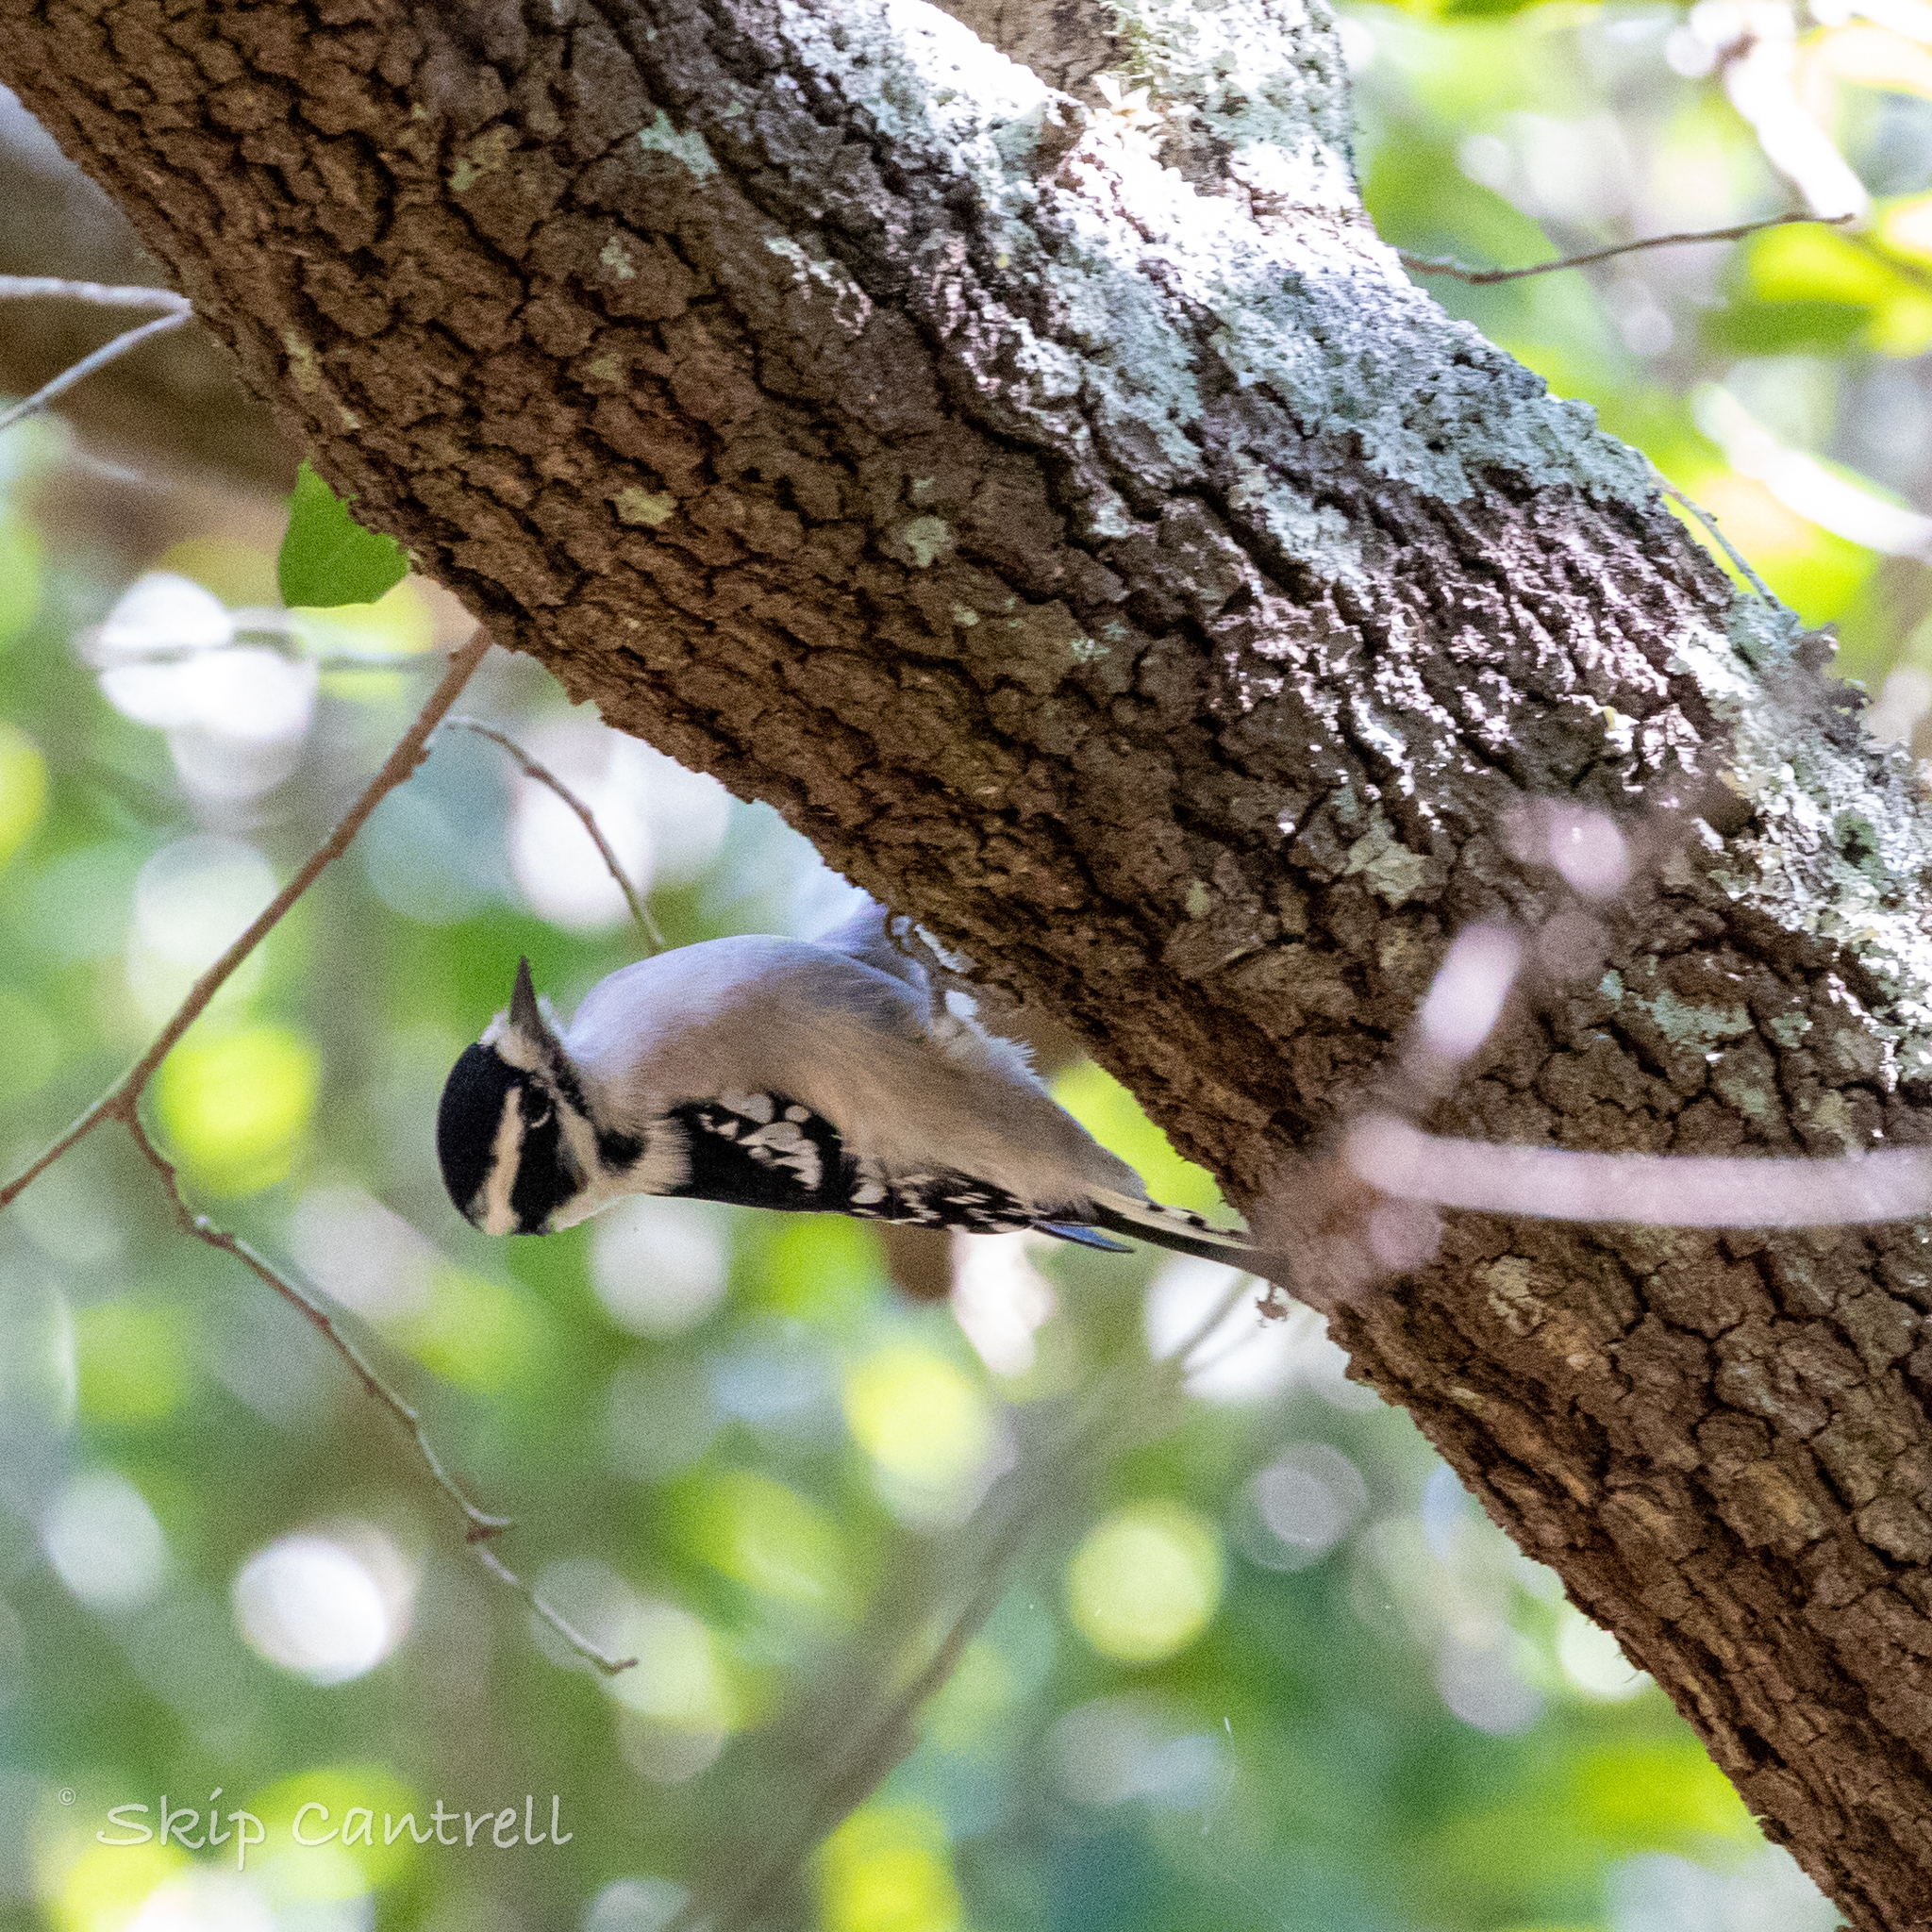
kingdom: Animalia
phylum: Chordata
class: Aves
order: Piciformes
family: Picidae
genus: Dryobates
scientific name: Dryobates pubescens
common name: Downy woodpecker
